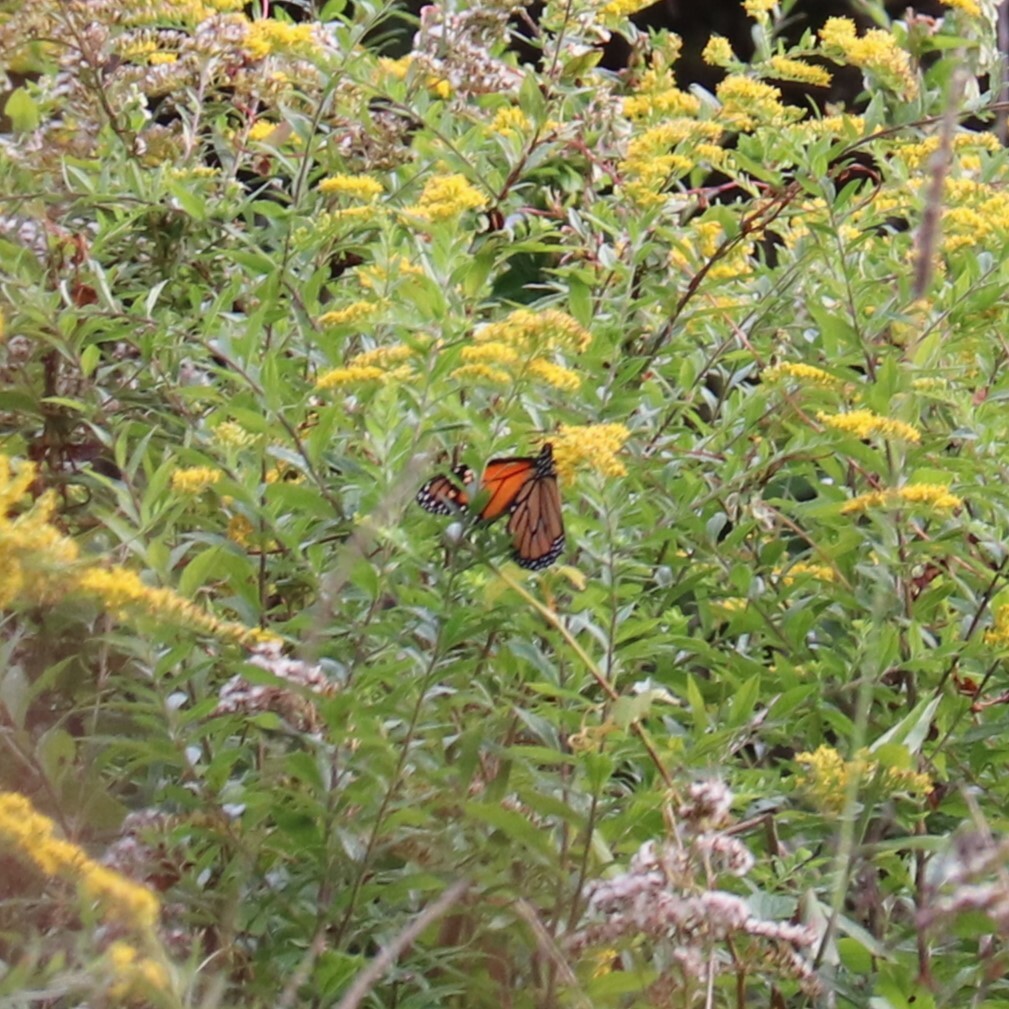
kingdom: Animalia
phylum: Arthropoda
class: Insecta
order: Lepidoptera
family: Nymphalidae
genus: Danaus
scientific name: Danaus plexippus
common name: Monarch
